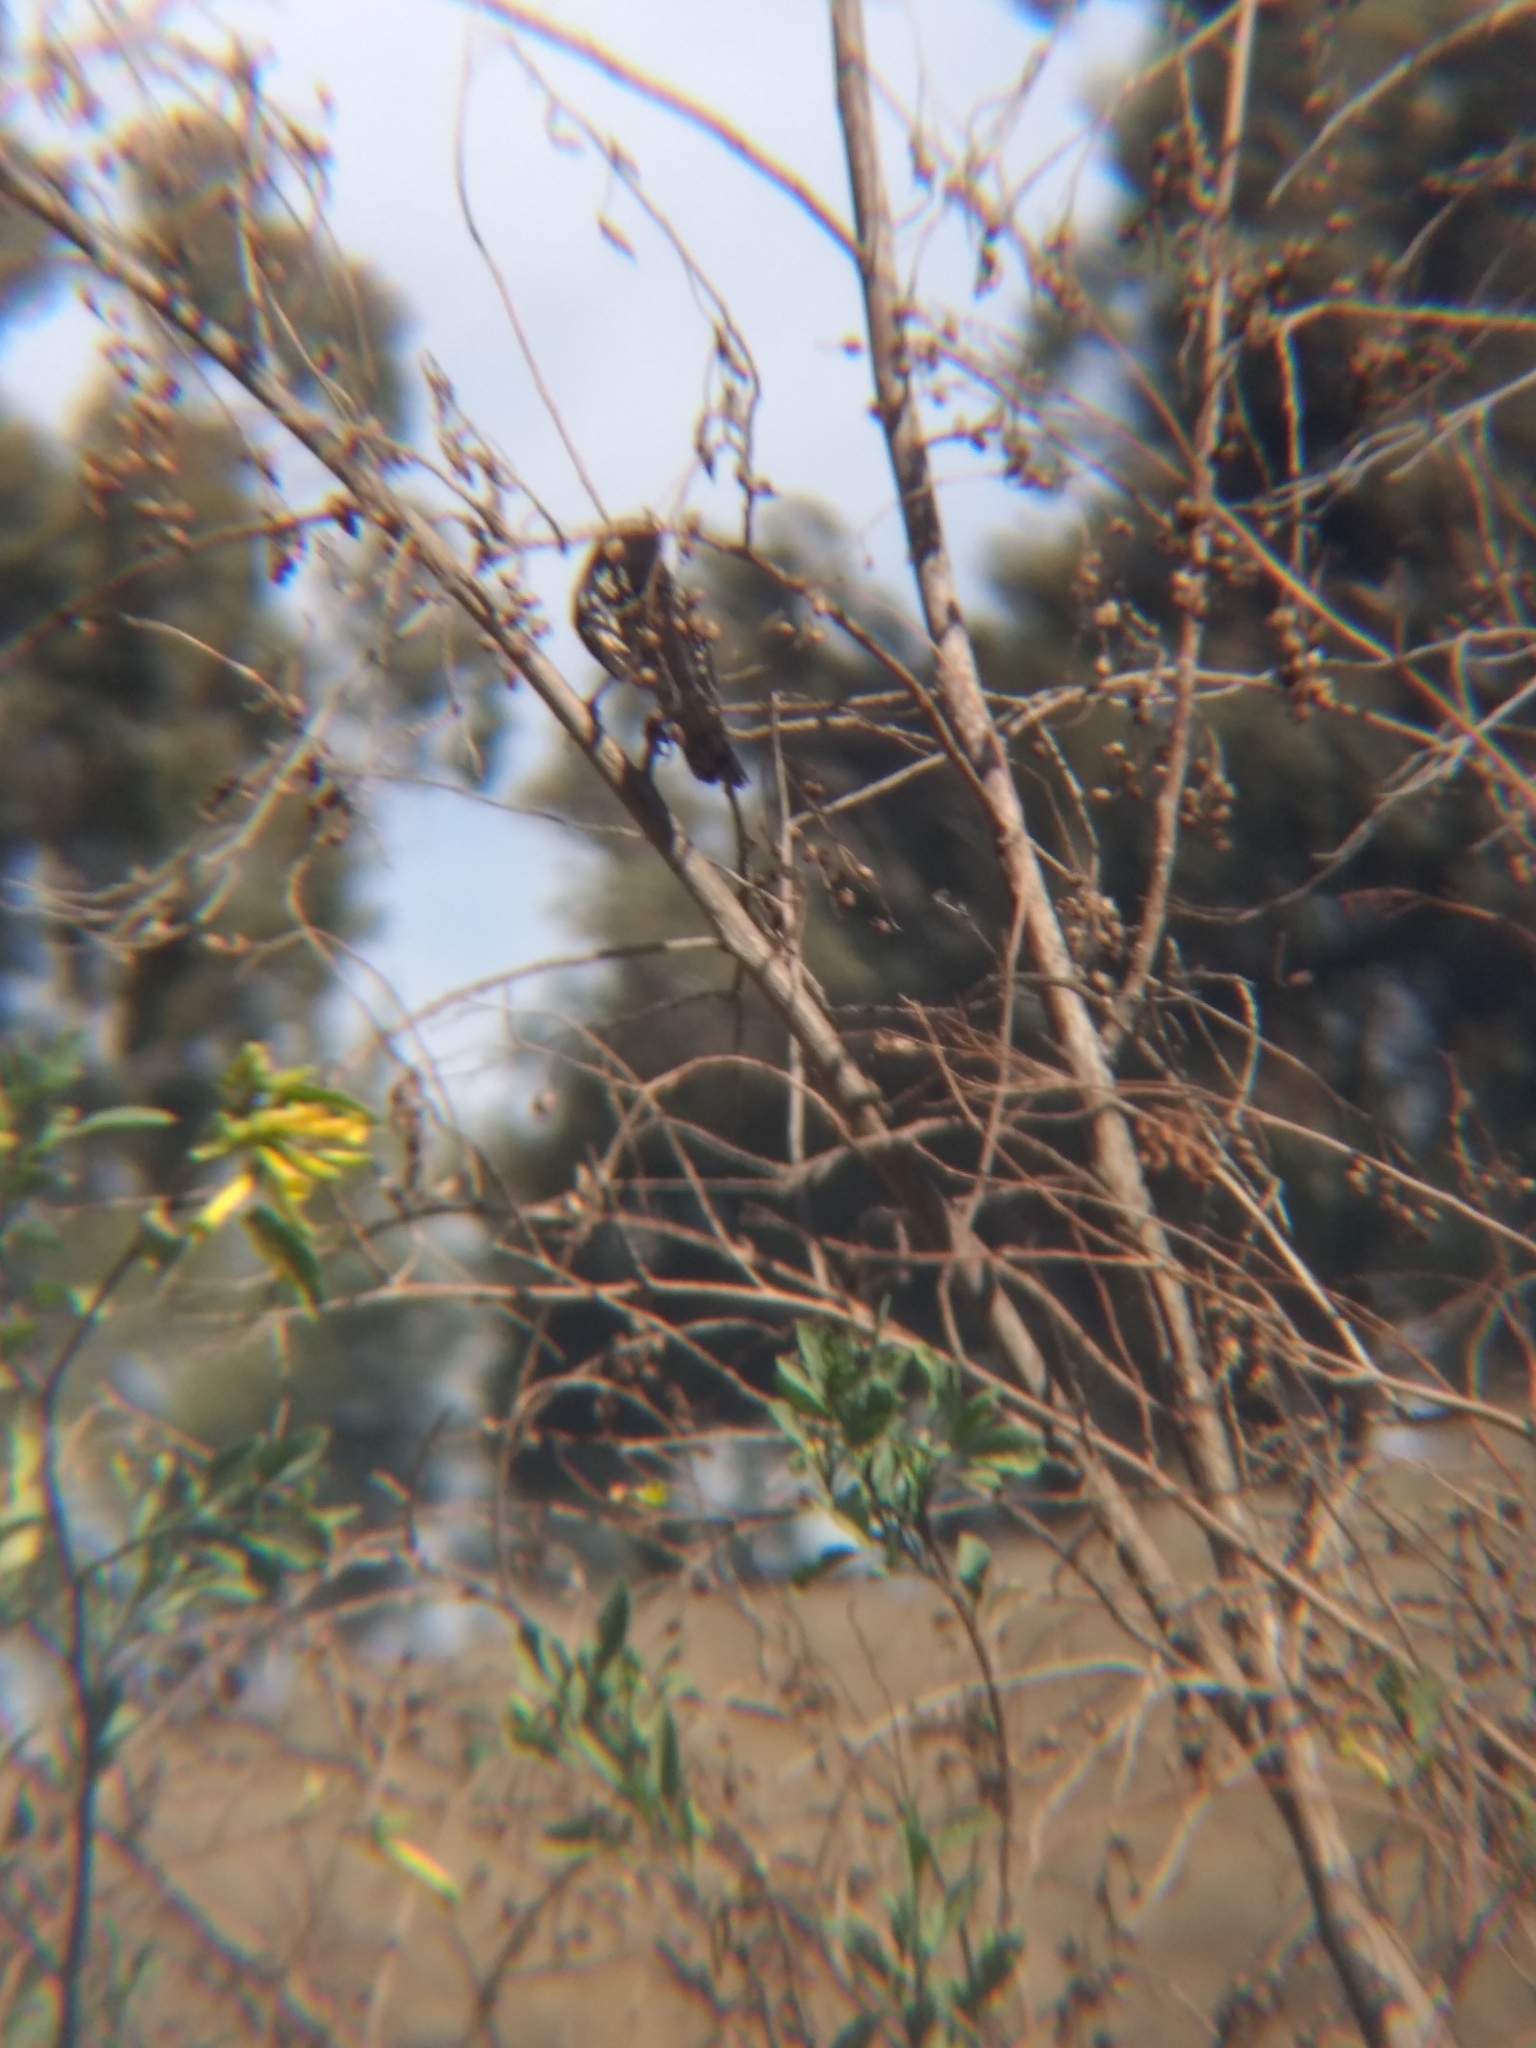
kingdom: Animalia
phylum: Chordata
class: Aves
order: Passeriformes
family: Passerellidae
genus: Pipilo
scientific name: Pipilo maculatus
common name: Spotted towhee
